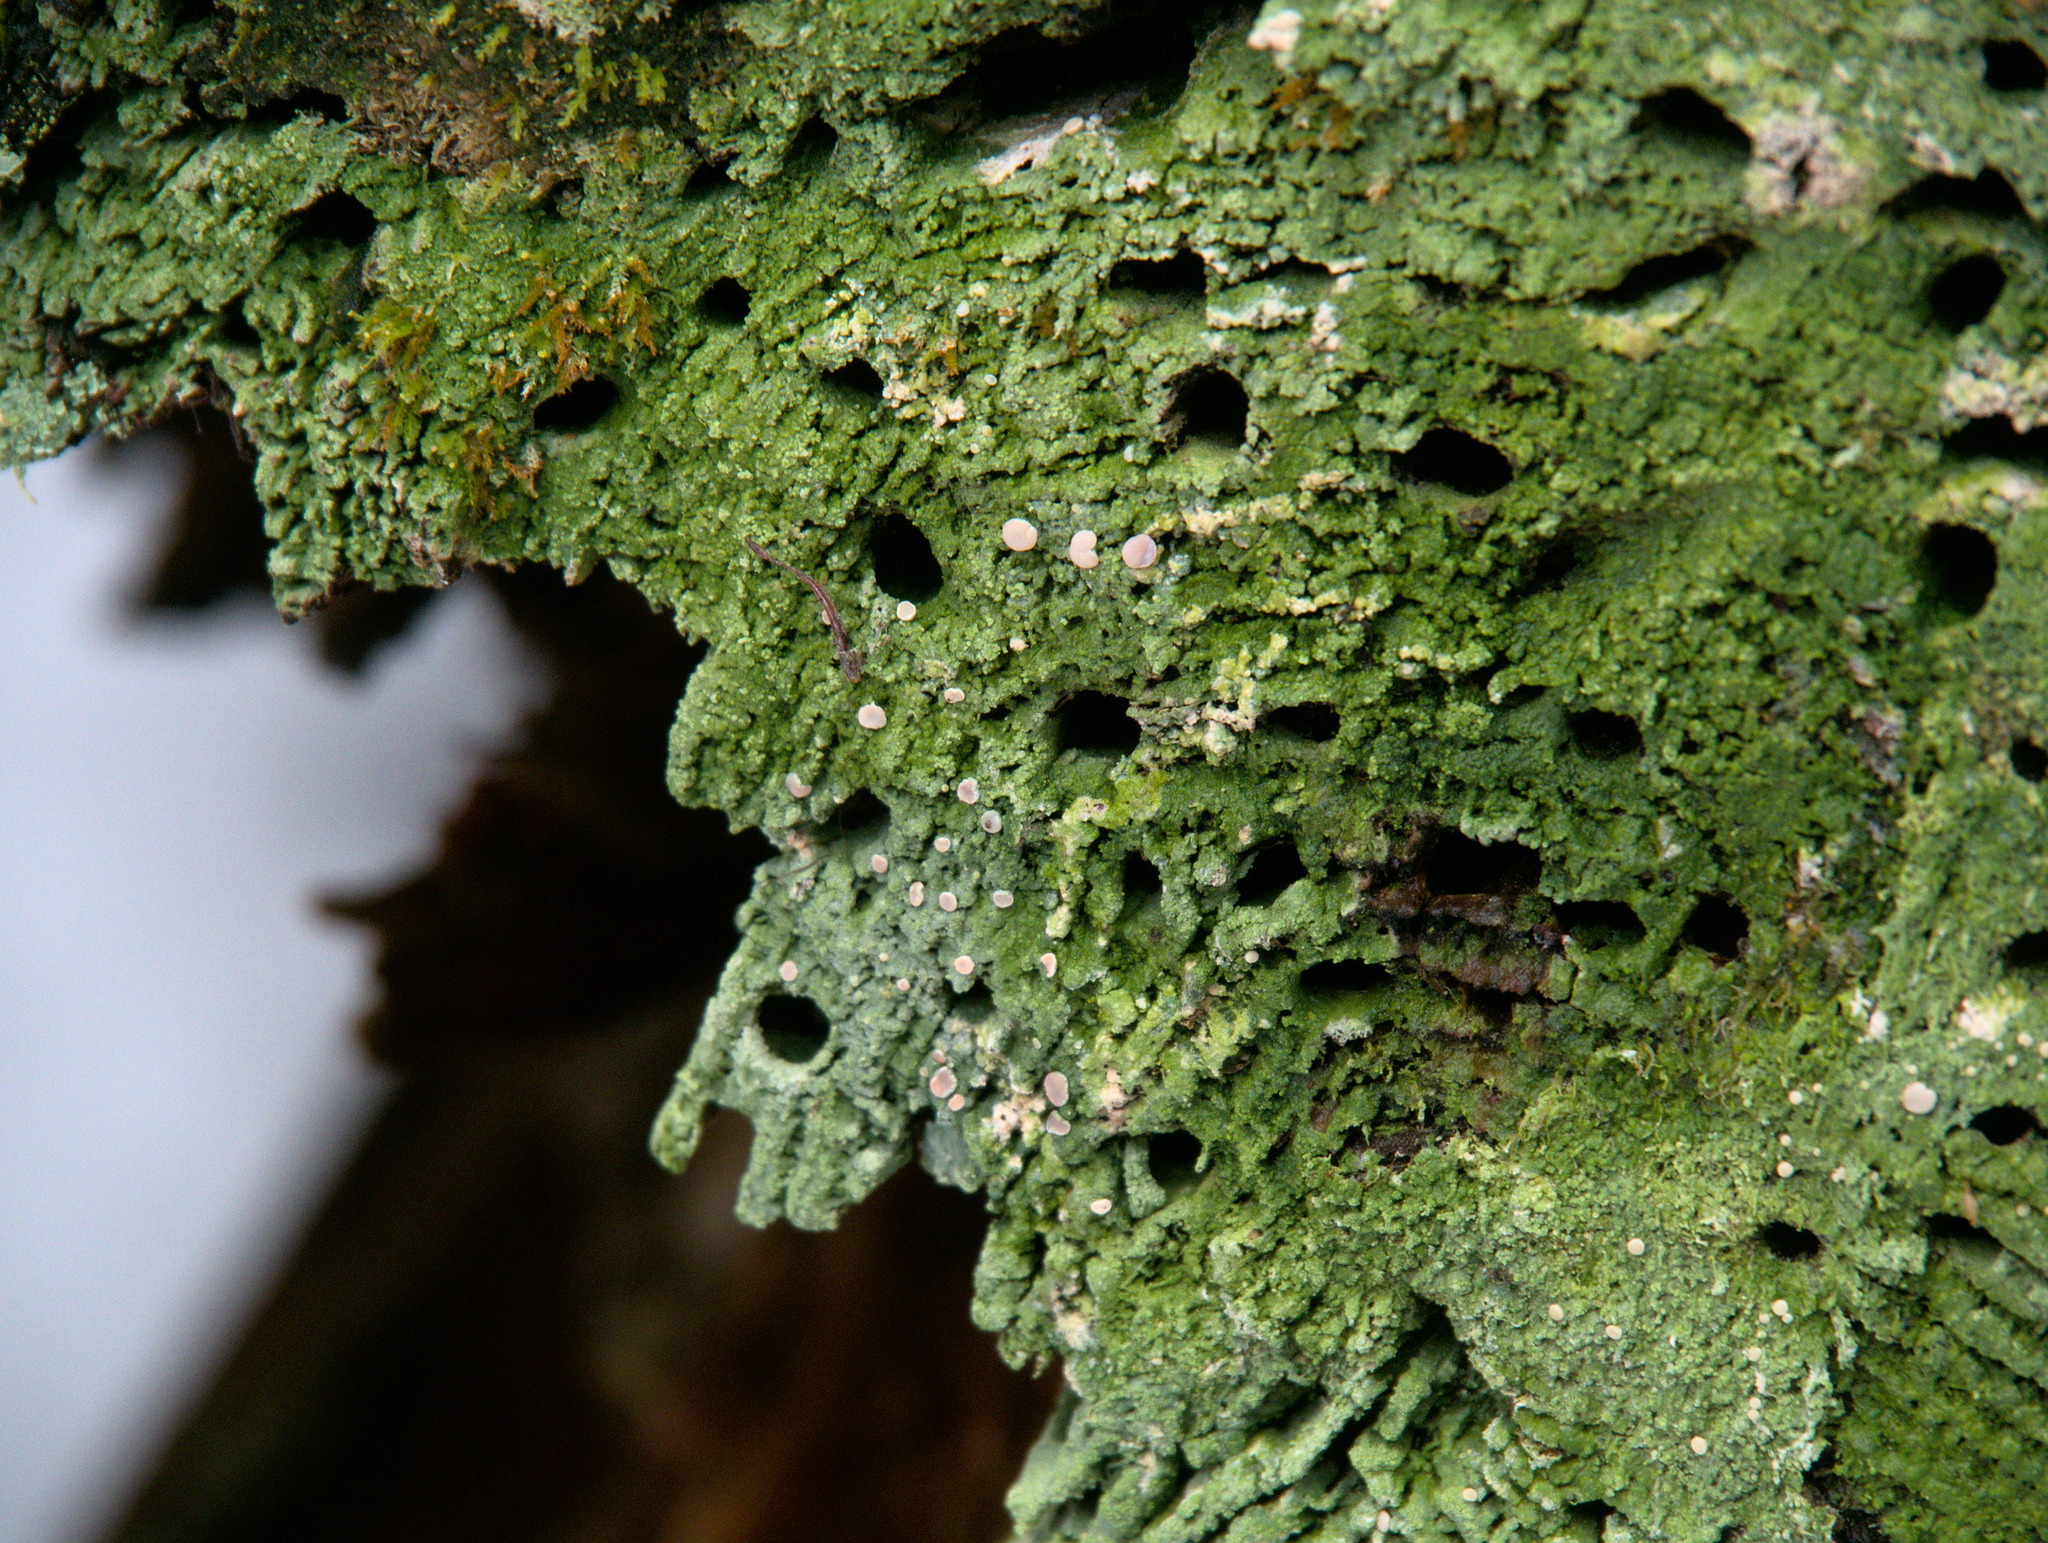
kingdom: Fungi
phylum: Ascomycota
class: Lecanoromycetes
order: Pertusariales
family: Icmadophilaceae
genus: Icmadophila
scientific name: Icmadophila ericetorum
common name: Candy lichen
